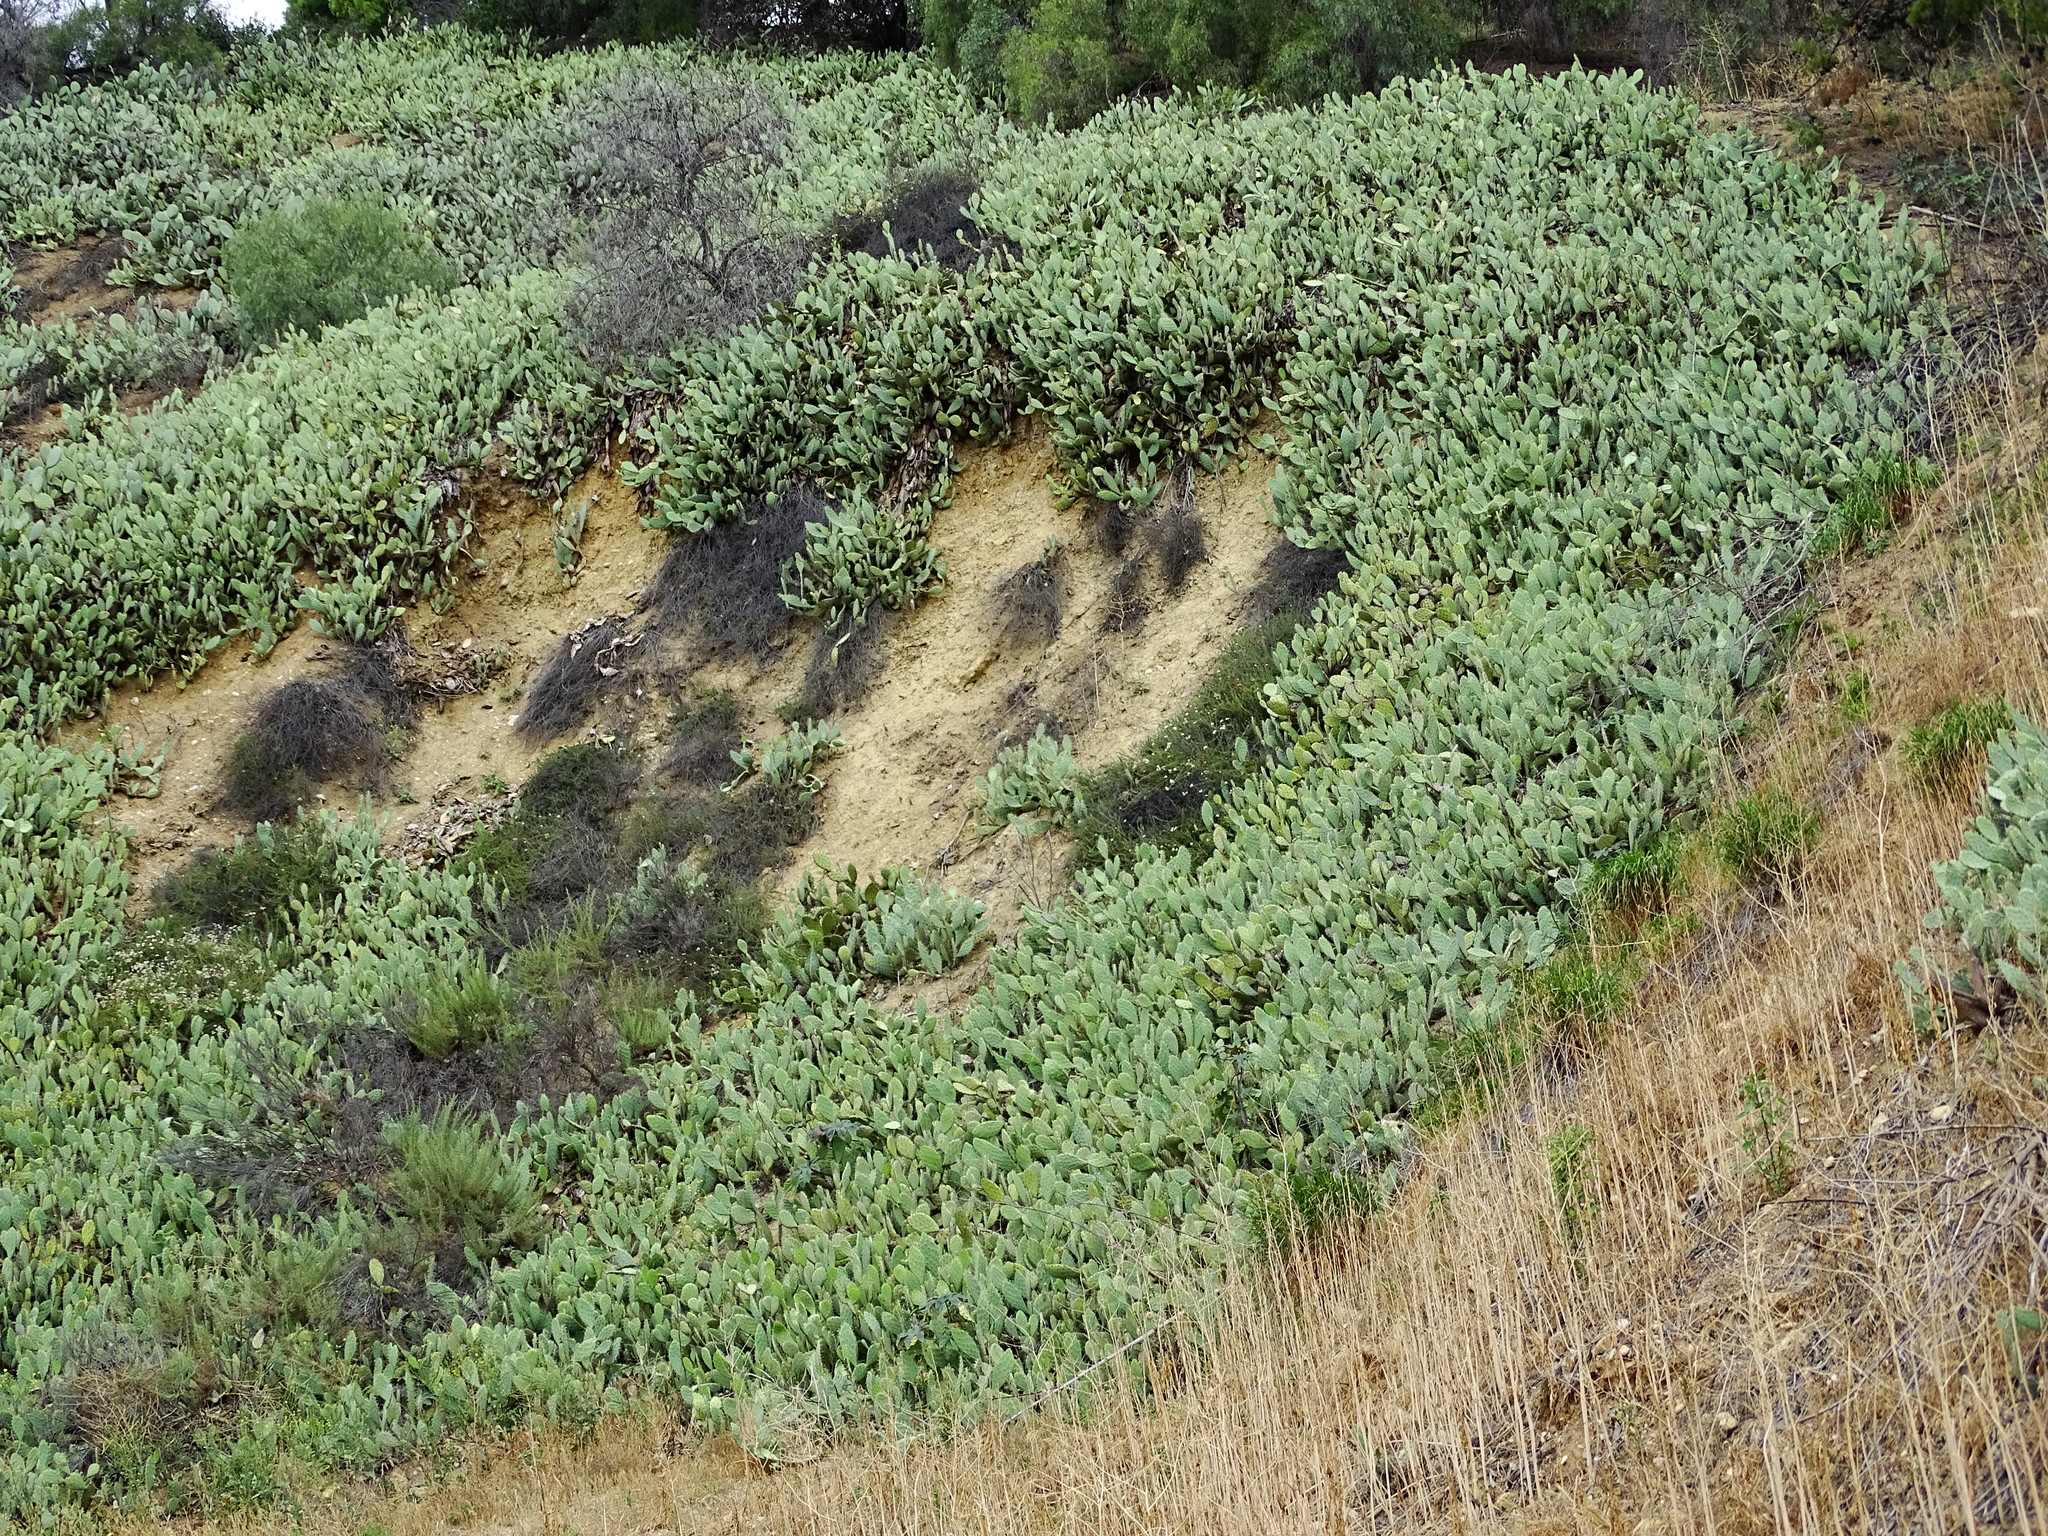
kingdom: Plantae
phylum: Tracheophyta
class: Magnoliopsida
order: Caryophyllales
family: Cactaceae
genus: Opuntia
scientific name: Opuntia littoralis
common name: Coastal prickly-pear
